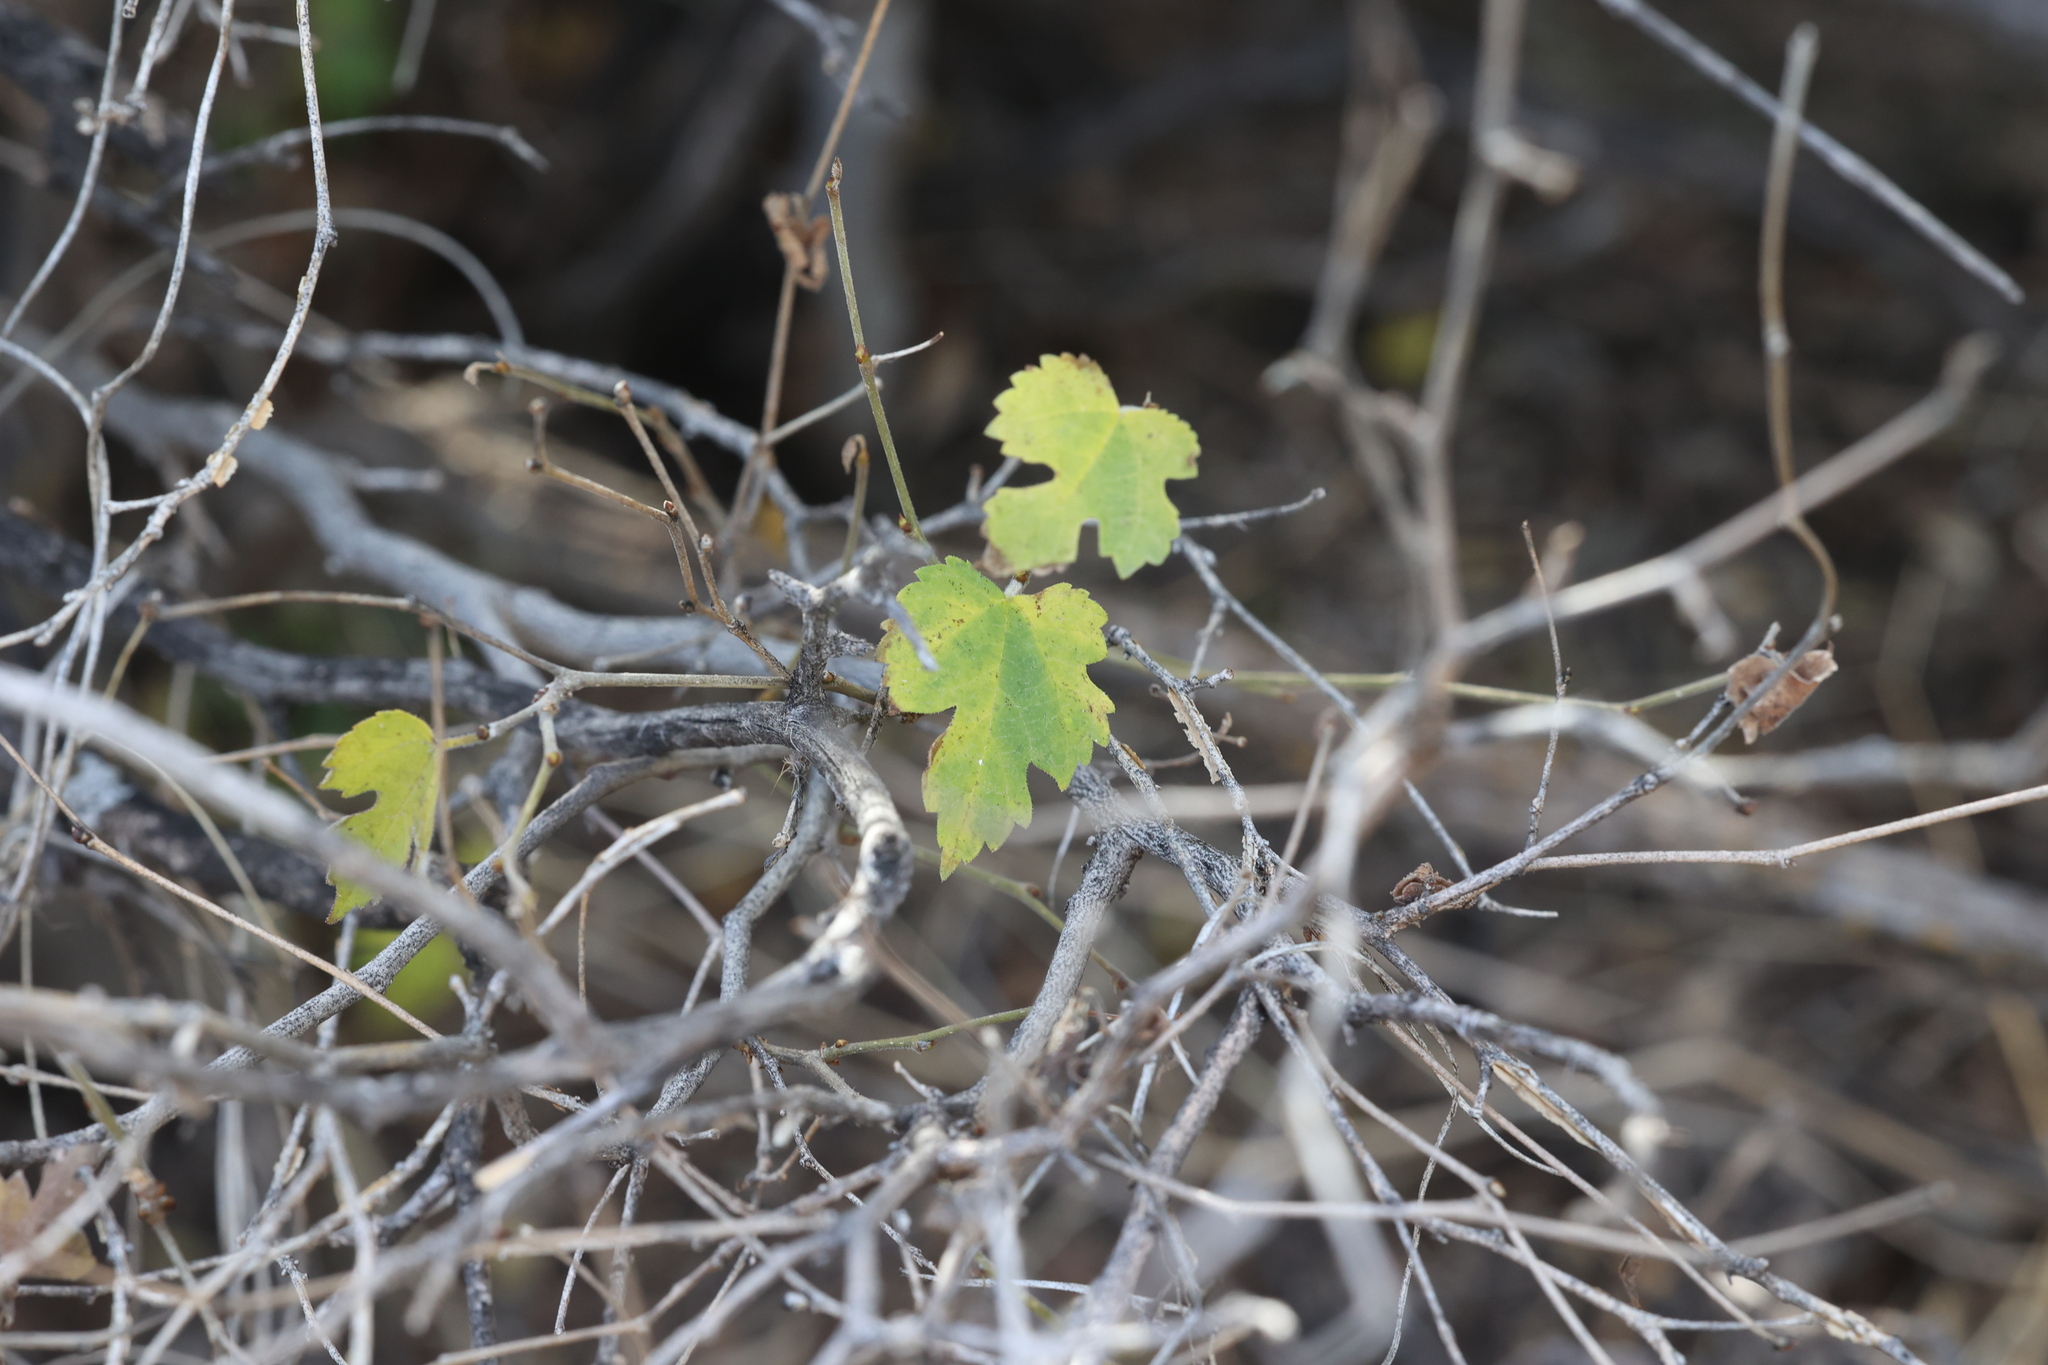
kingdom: Plantae
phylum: Tracheophyta
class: Magnoliopsida
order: Rosales
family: Moraceae
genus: Morus
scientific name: Morus microphylla
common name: Mexican mulberry
